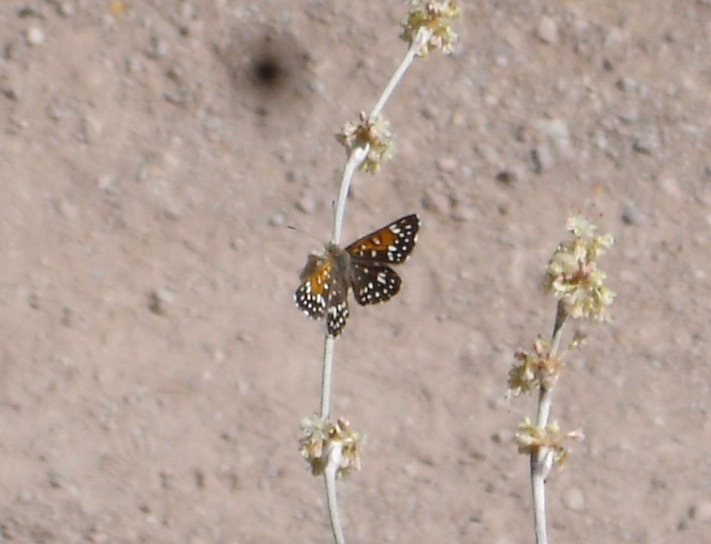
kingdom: Animalia
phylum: Arthropoda
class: Insecta
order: Lepidoptera
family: Riodinidae
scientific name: Riodinidae
